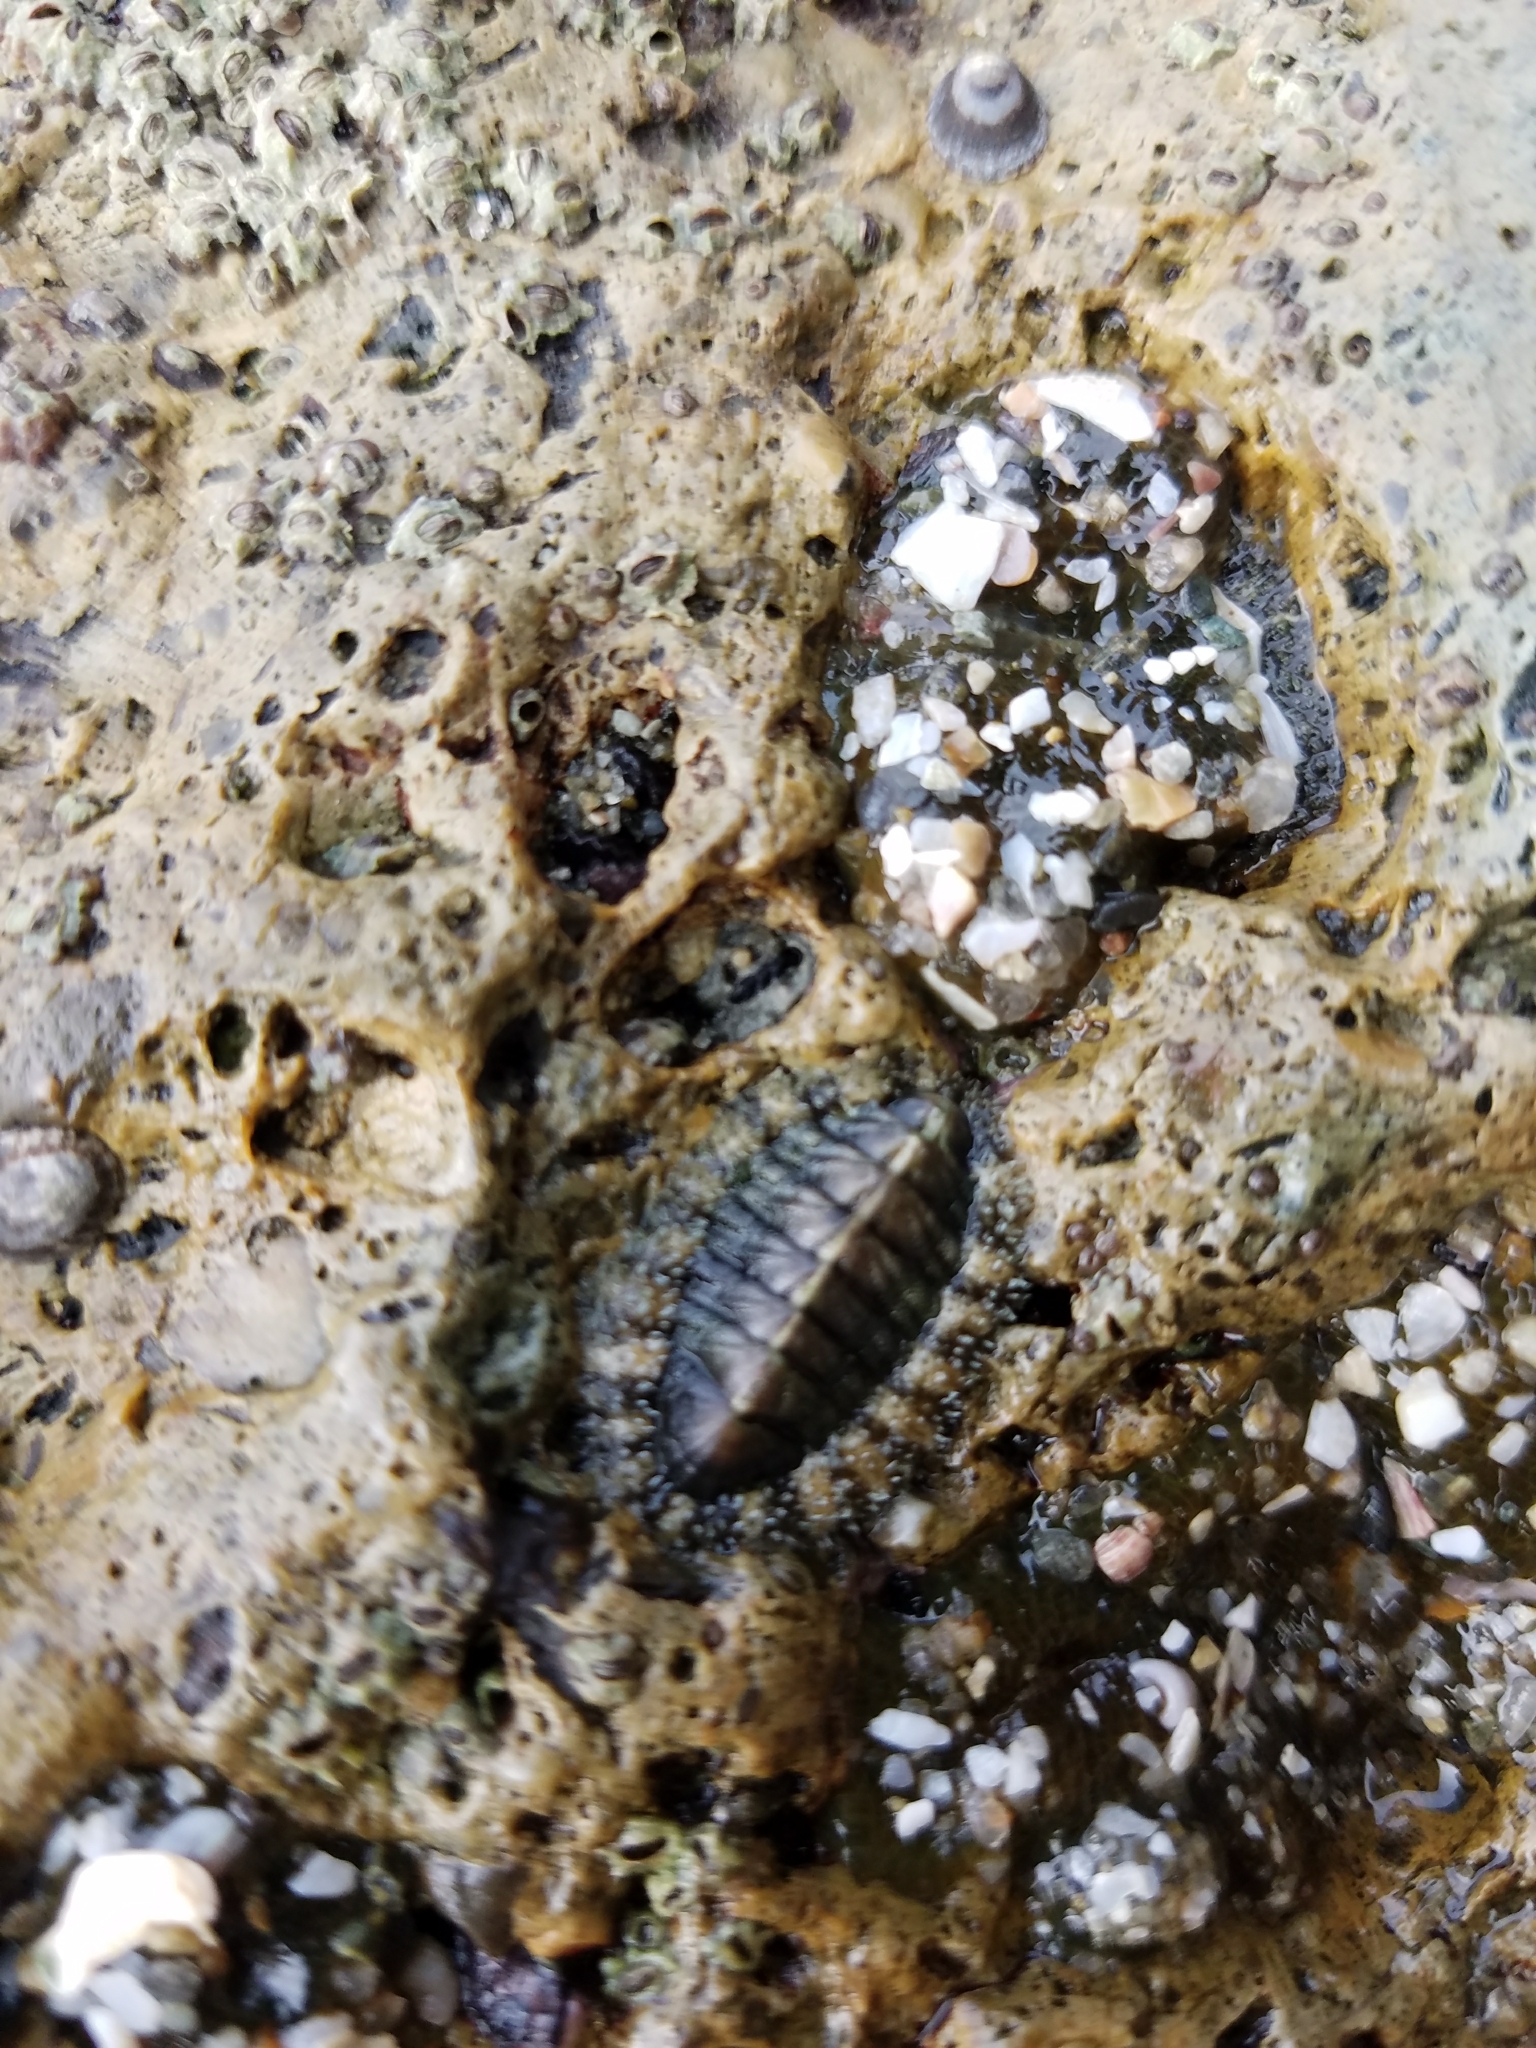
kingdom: Animalia
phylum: Mollusca
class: Polyplacophora
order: Chitonida
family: Tonicellidae
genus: Nuttallina
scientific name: Nuttallina californica
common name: California nuttall chiton
